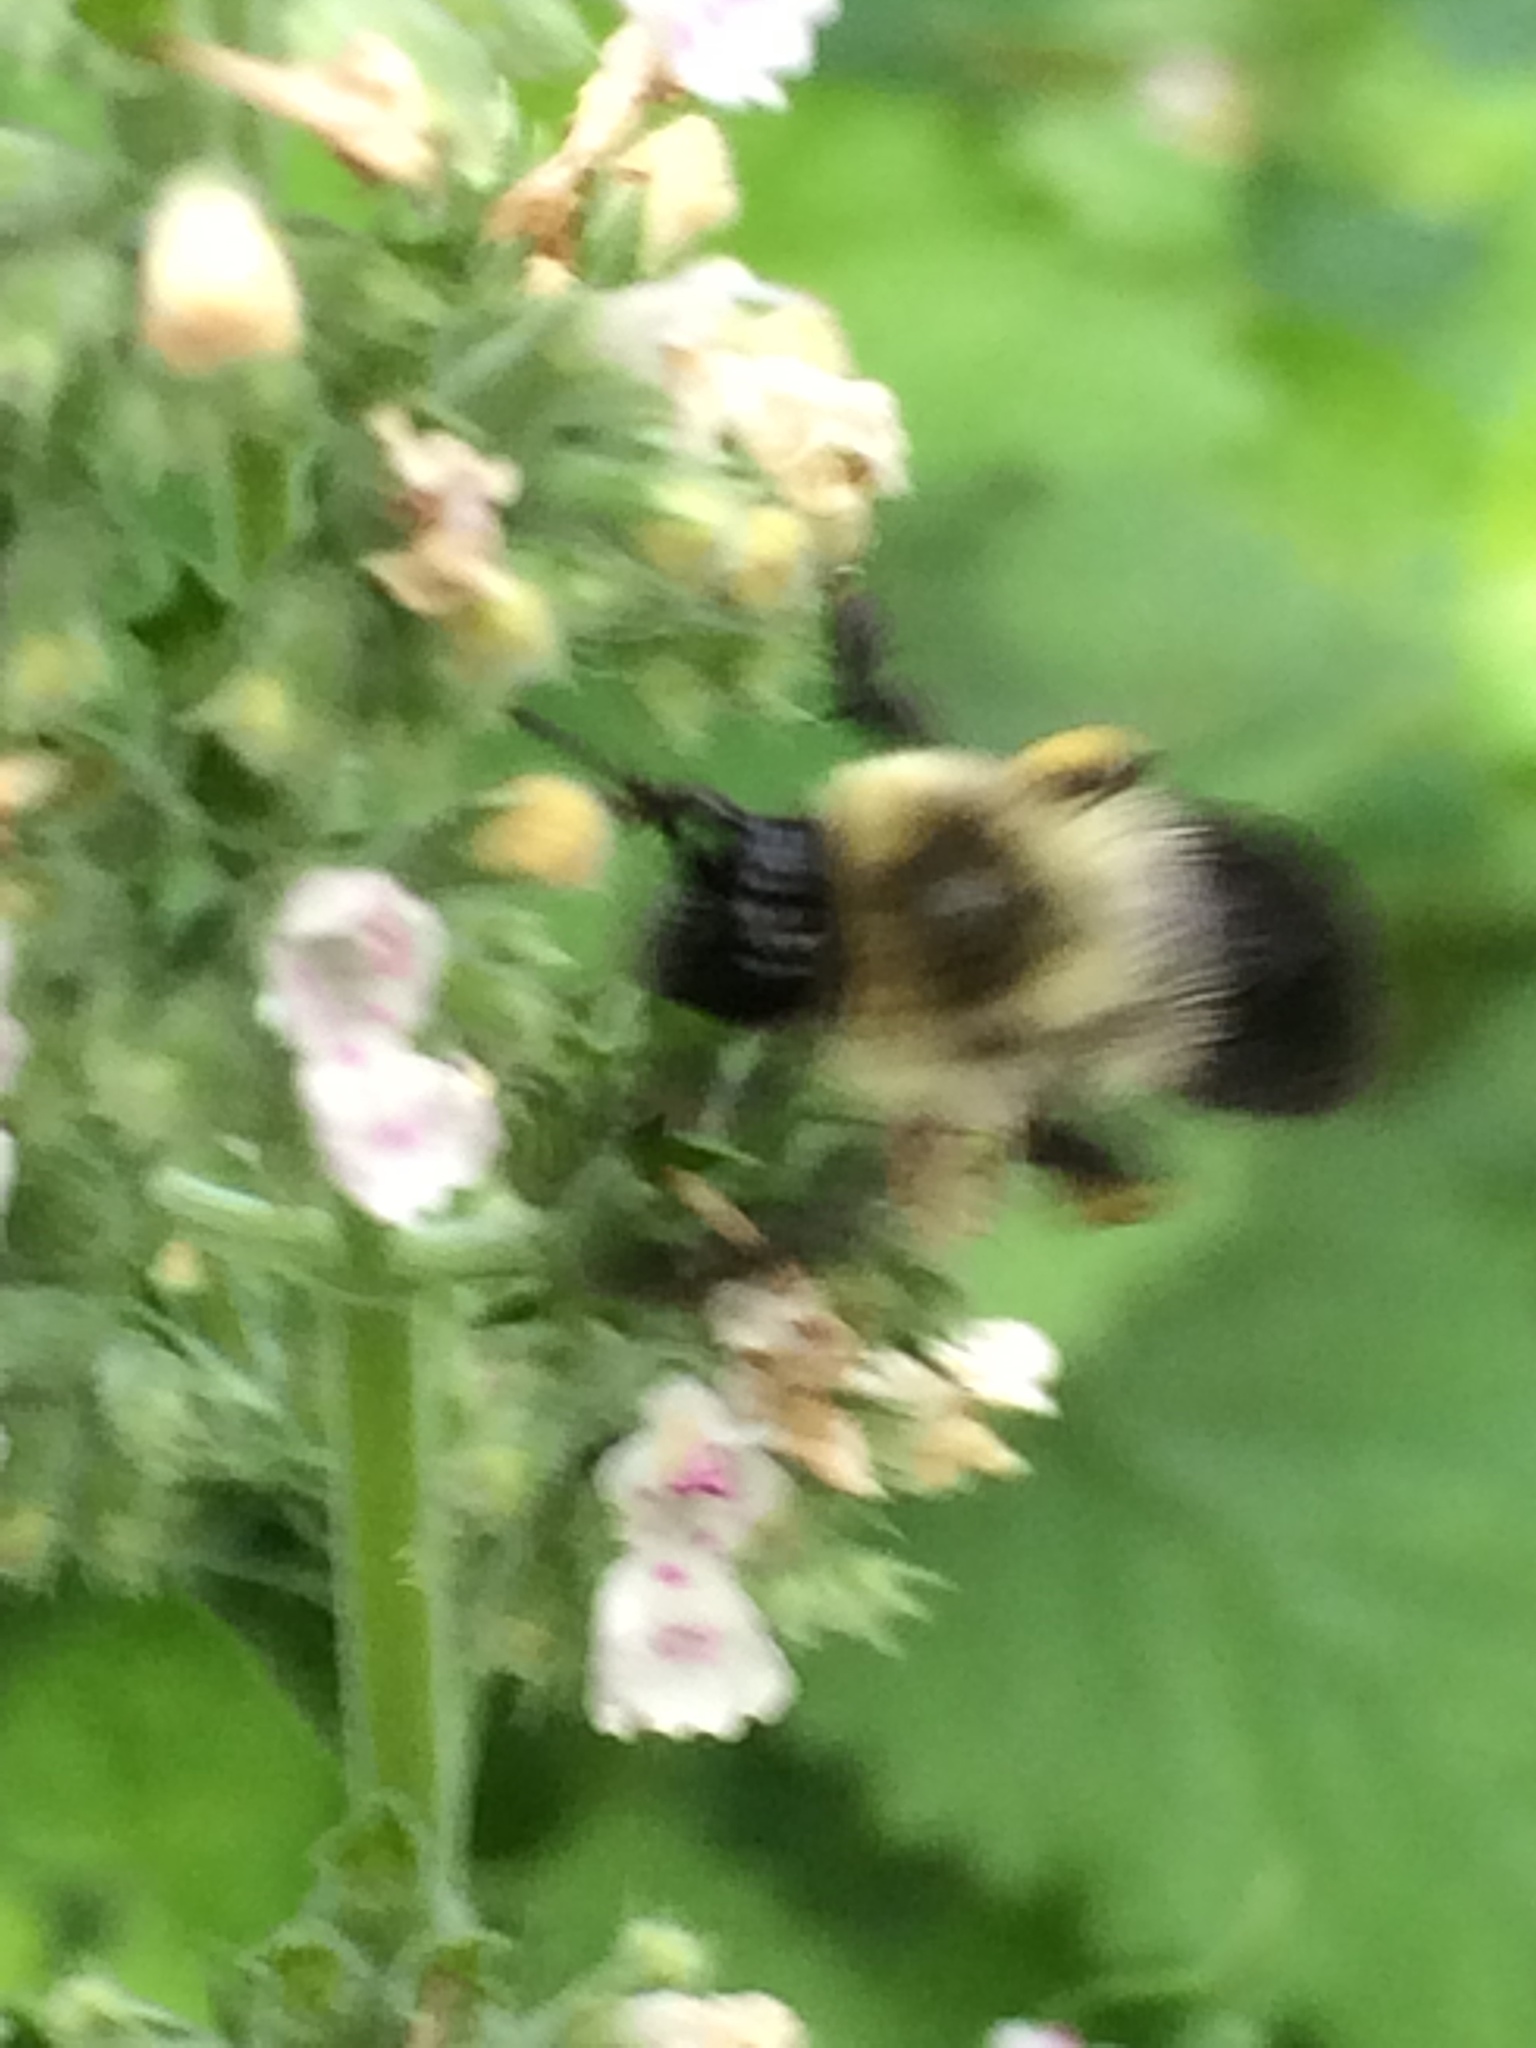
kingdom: Animalia
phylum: Arthropoda
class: Insecta
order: Hymenoptera
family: Apidae
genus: Bombus
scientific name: Bombus impatiens
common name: Common eastern bumble bee
